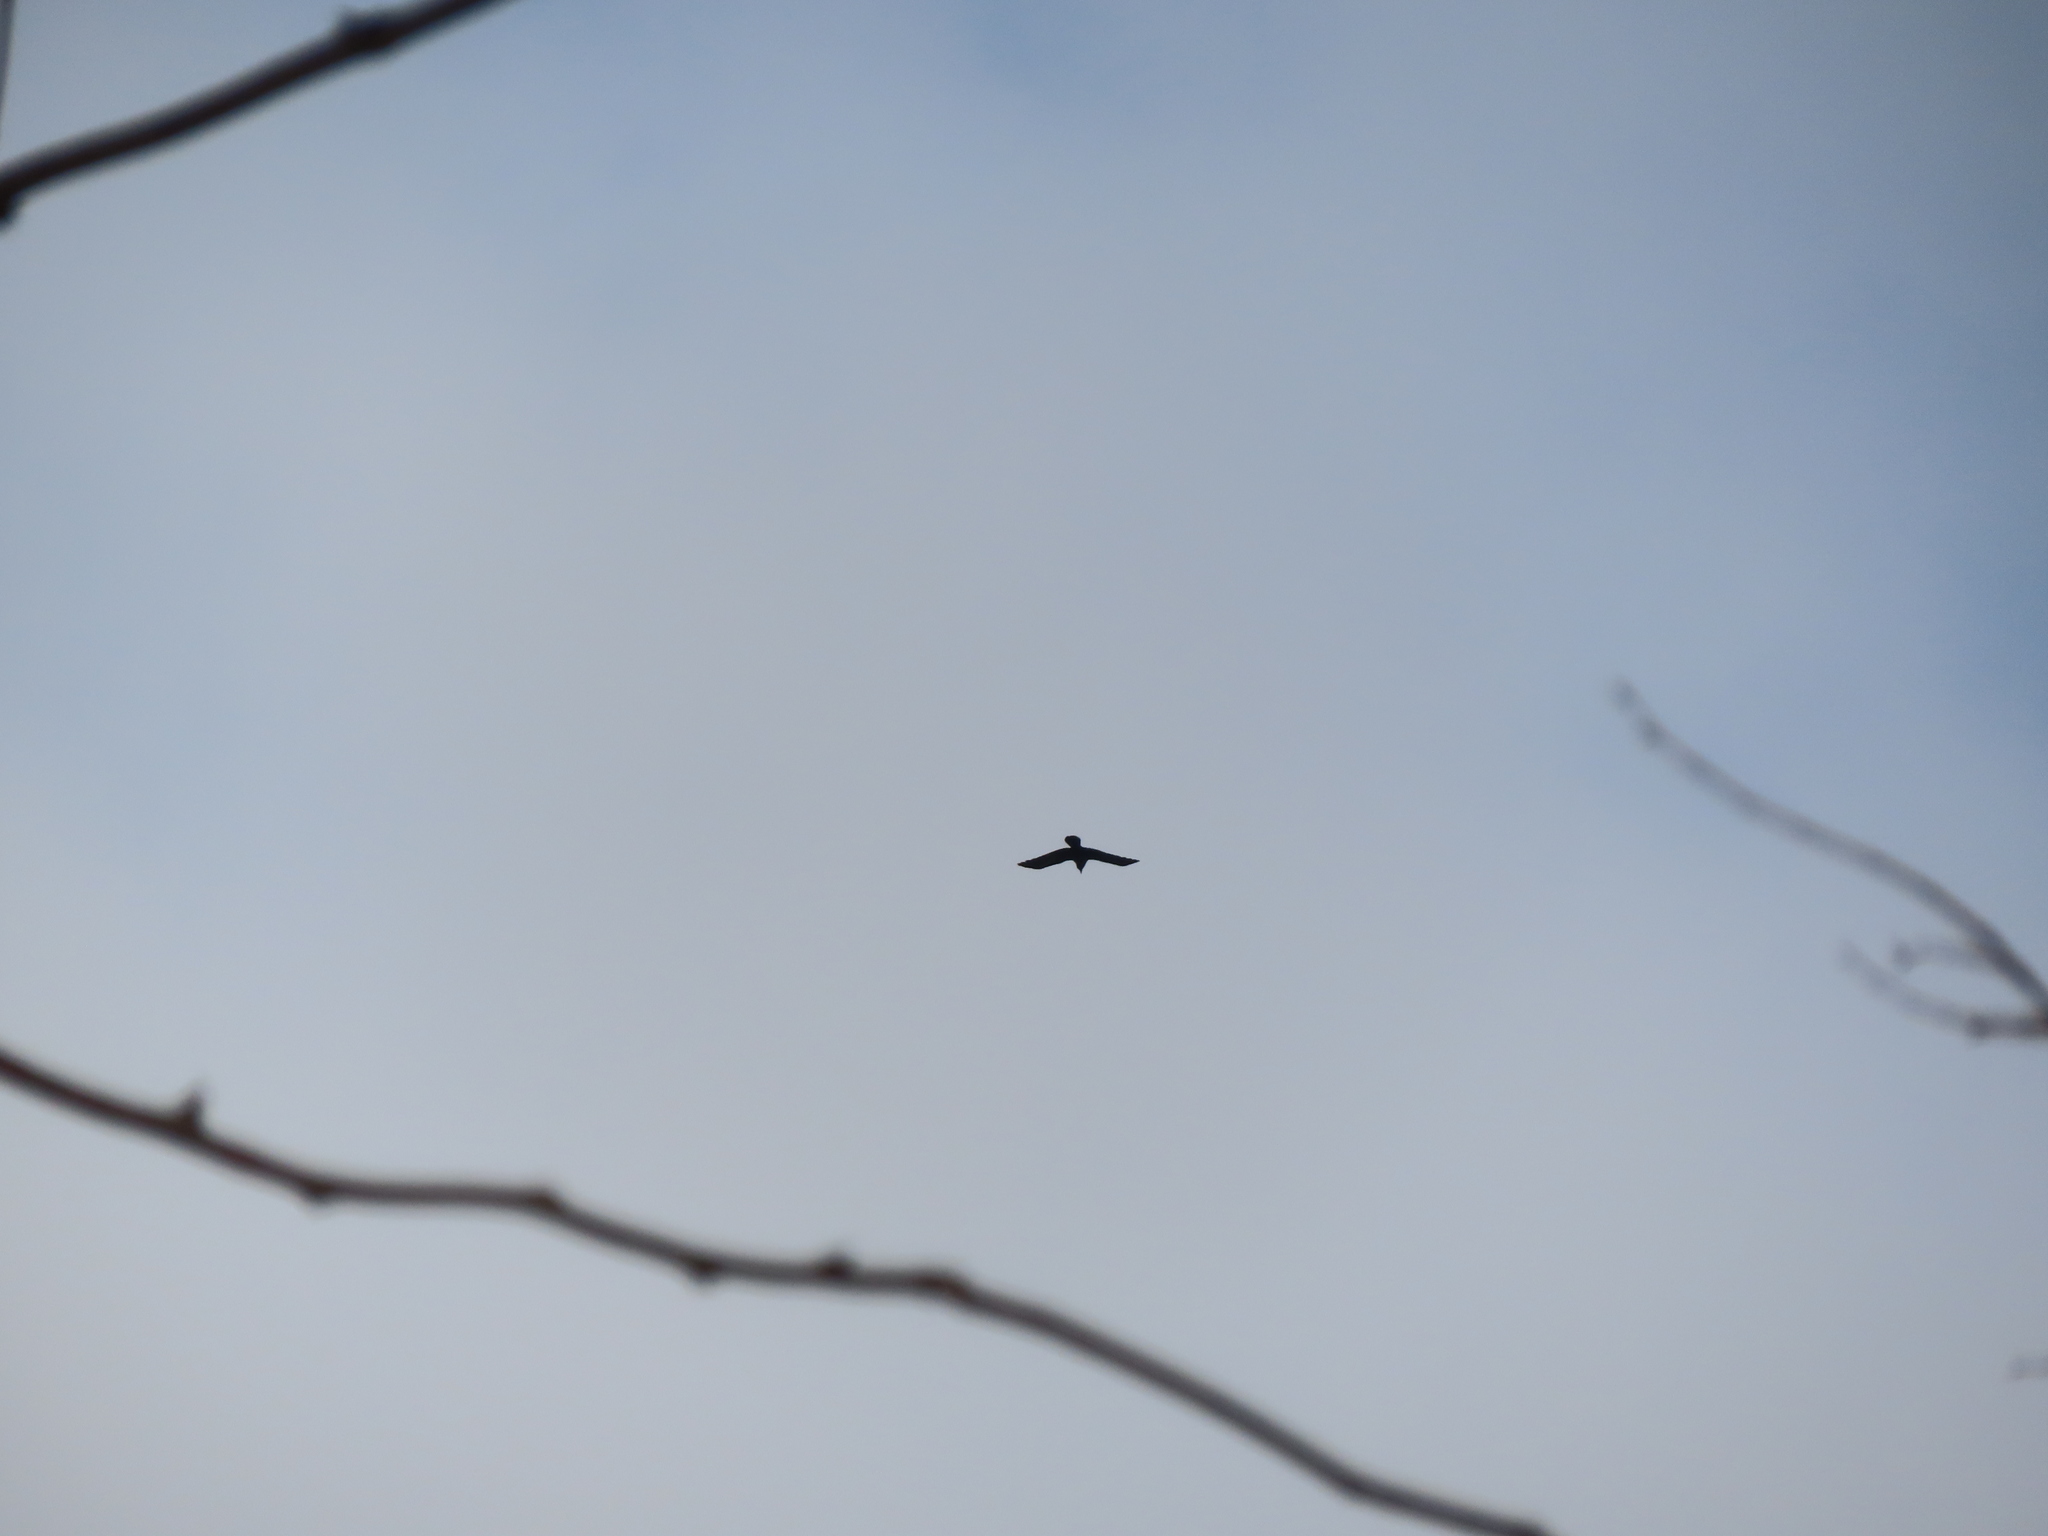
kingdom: Animalia
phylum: Chordata
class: Aves
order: Passeriformes
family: Corvidae
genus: Corvus
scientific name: Corvus
